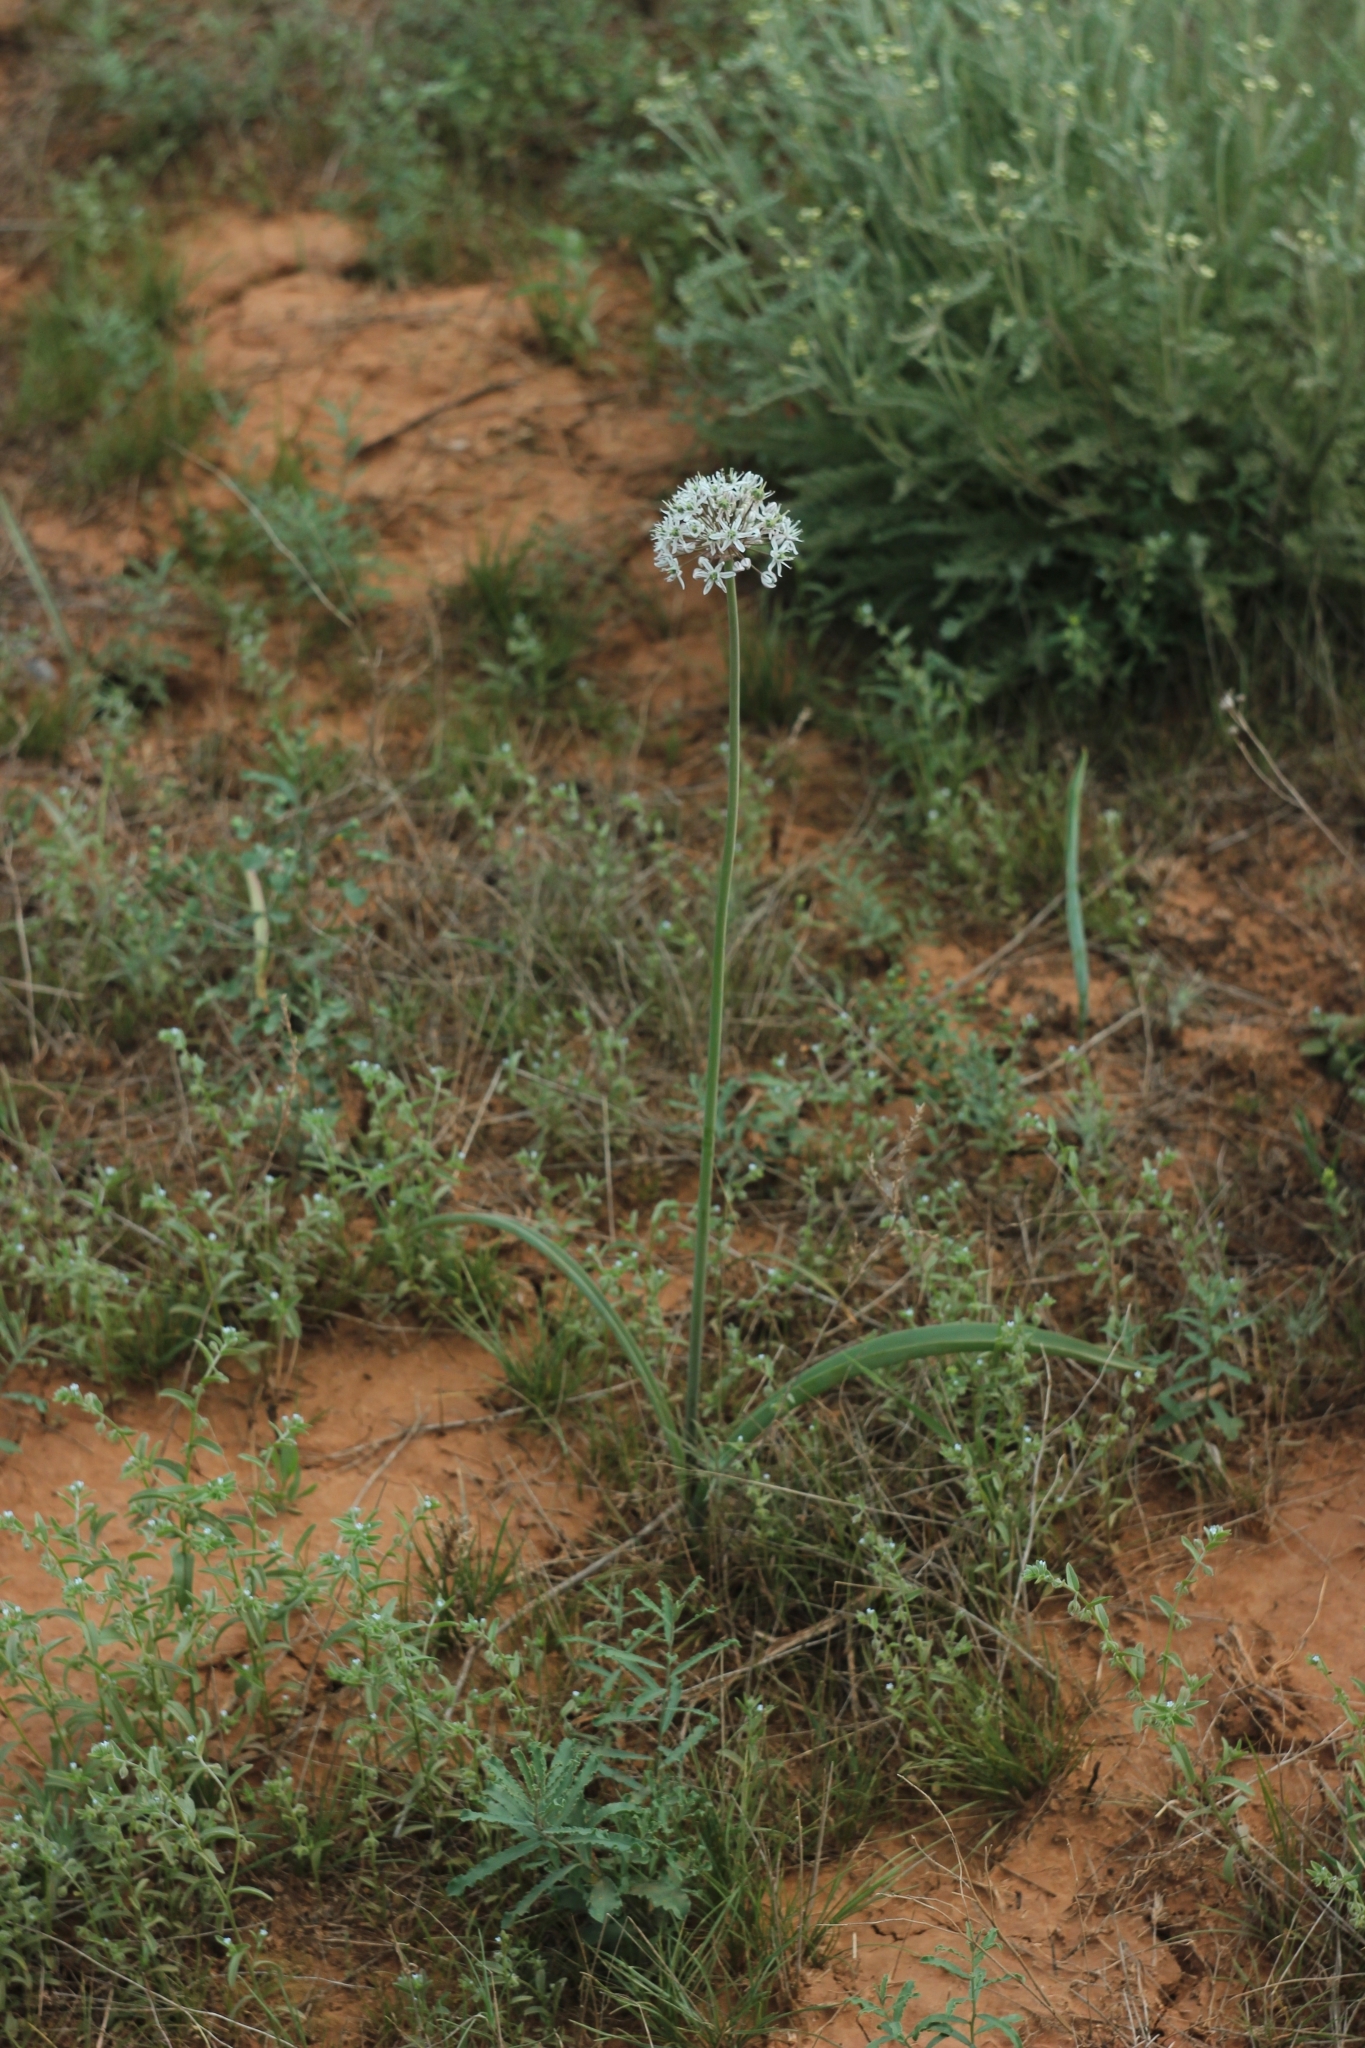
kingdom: Plantae
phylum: Tracheophyta
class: Liliopsida
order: Asparagales
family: Amaryllidaceae
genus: Allium
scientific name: Allium tulipifolium
